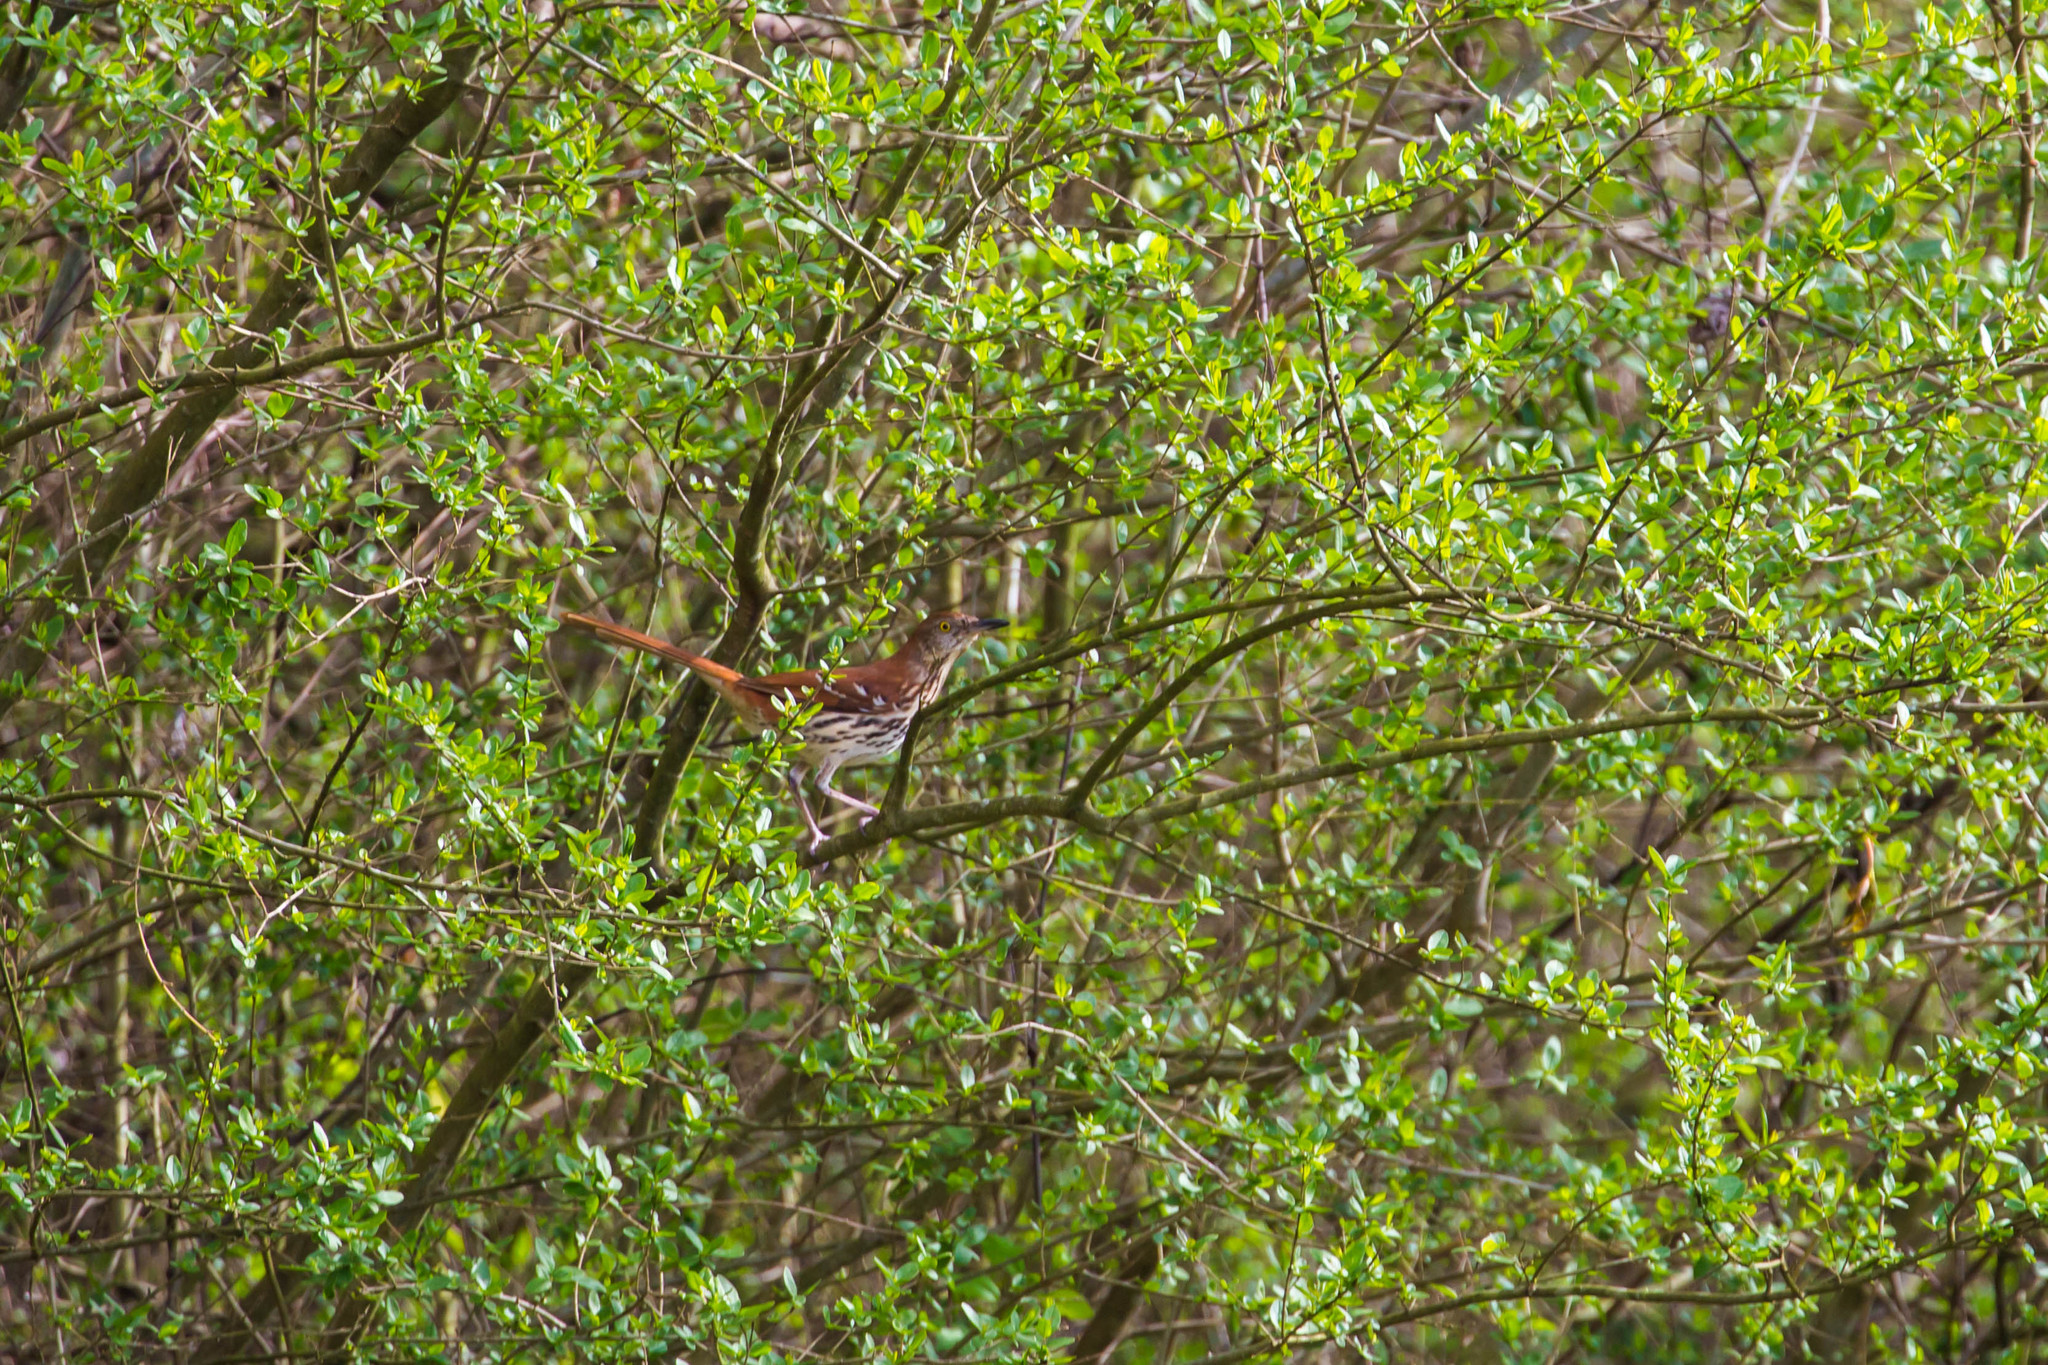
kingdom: Animalia
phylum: Chordata
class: Aves
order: Passeriformes
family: Mimidae
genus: Toxostoma
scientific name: Toxostoma rufum
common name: Brown thrasher
